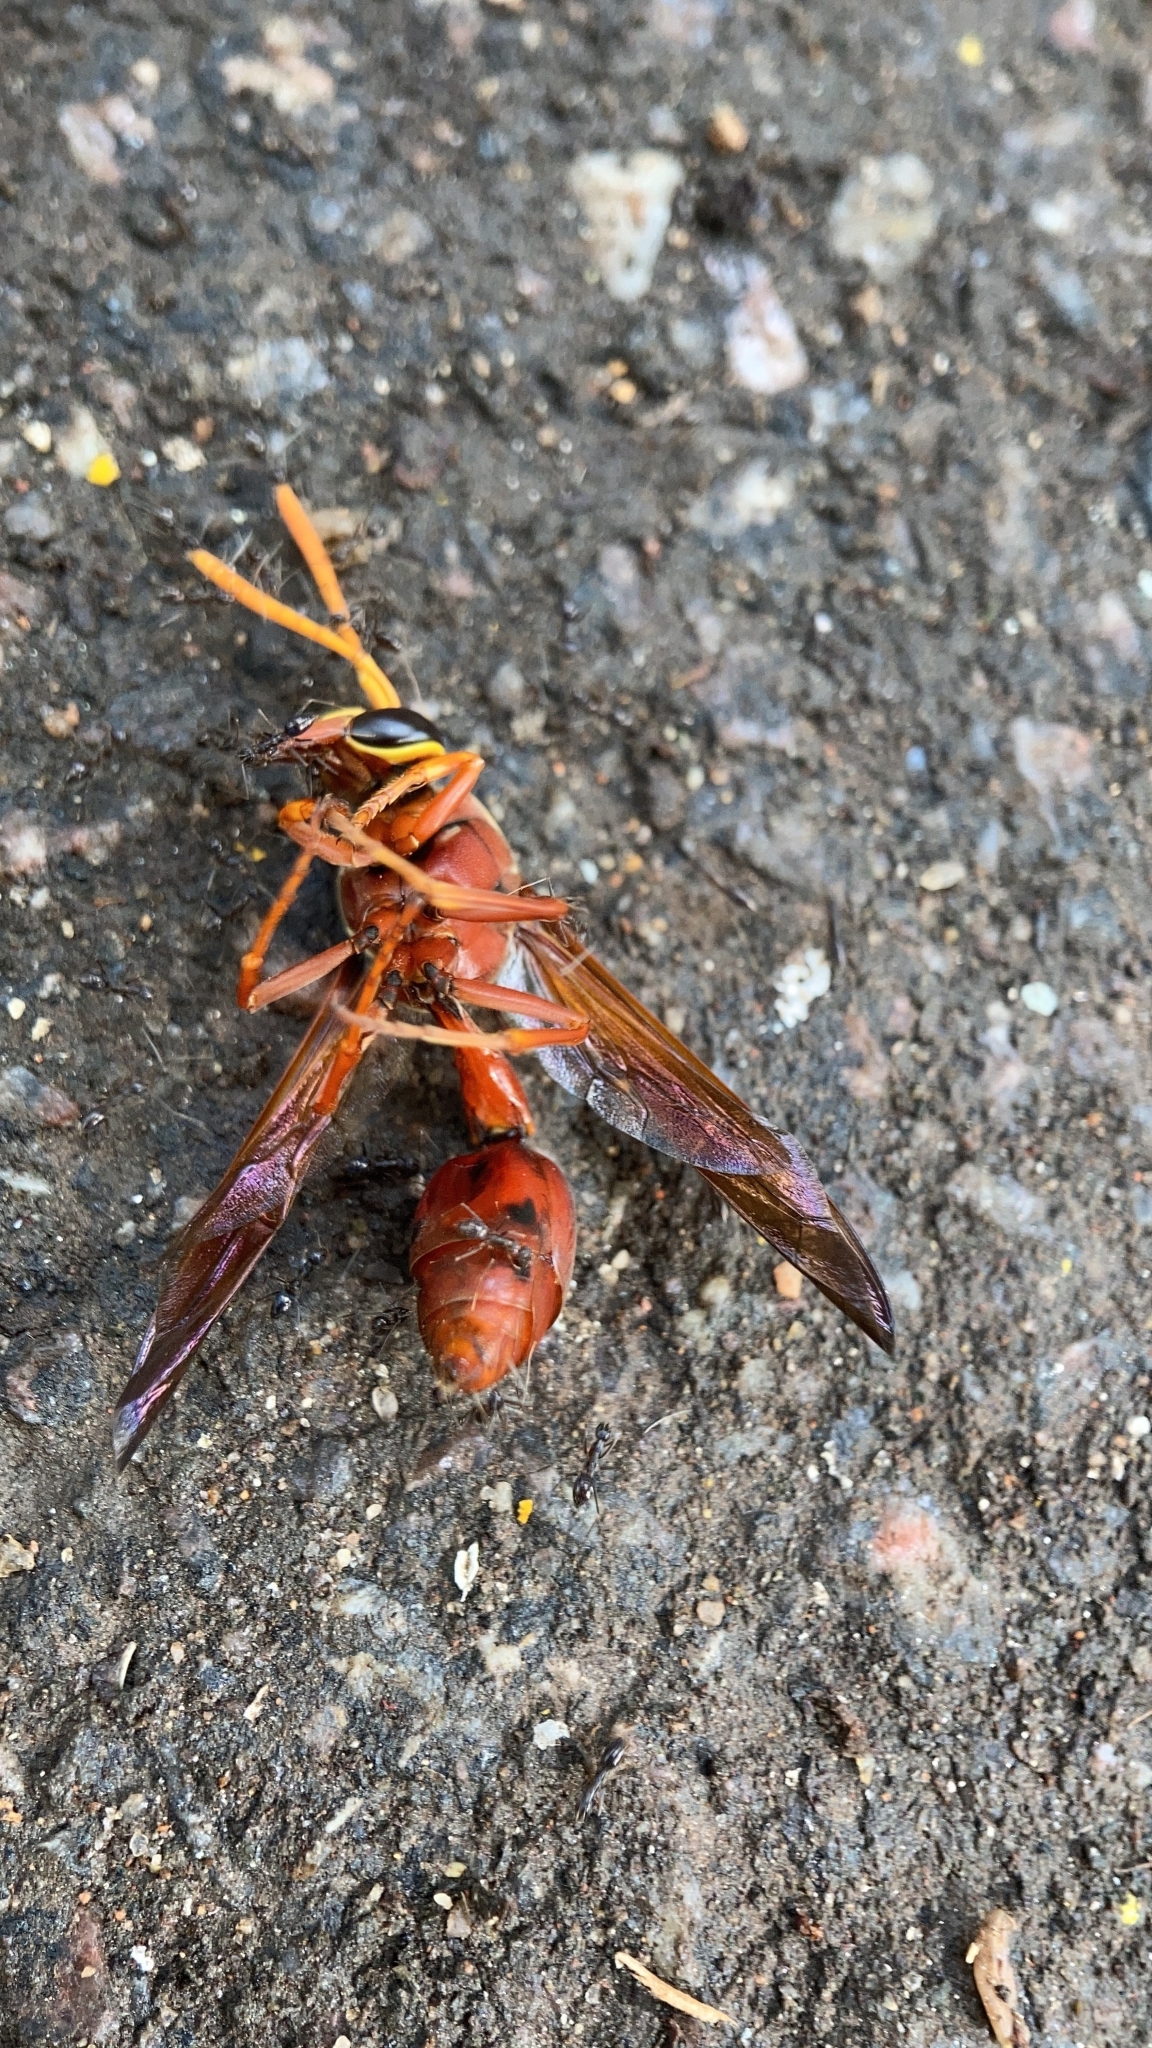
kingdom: Animalia
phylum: Arthropoda
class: Insecta
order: Hymenoptera
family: Eumenidae
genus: Delta
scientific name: Delta conoideum
